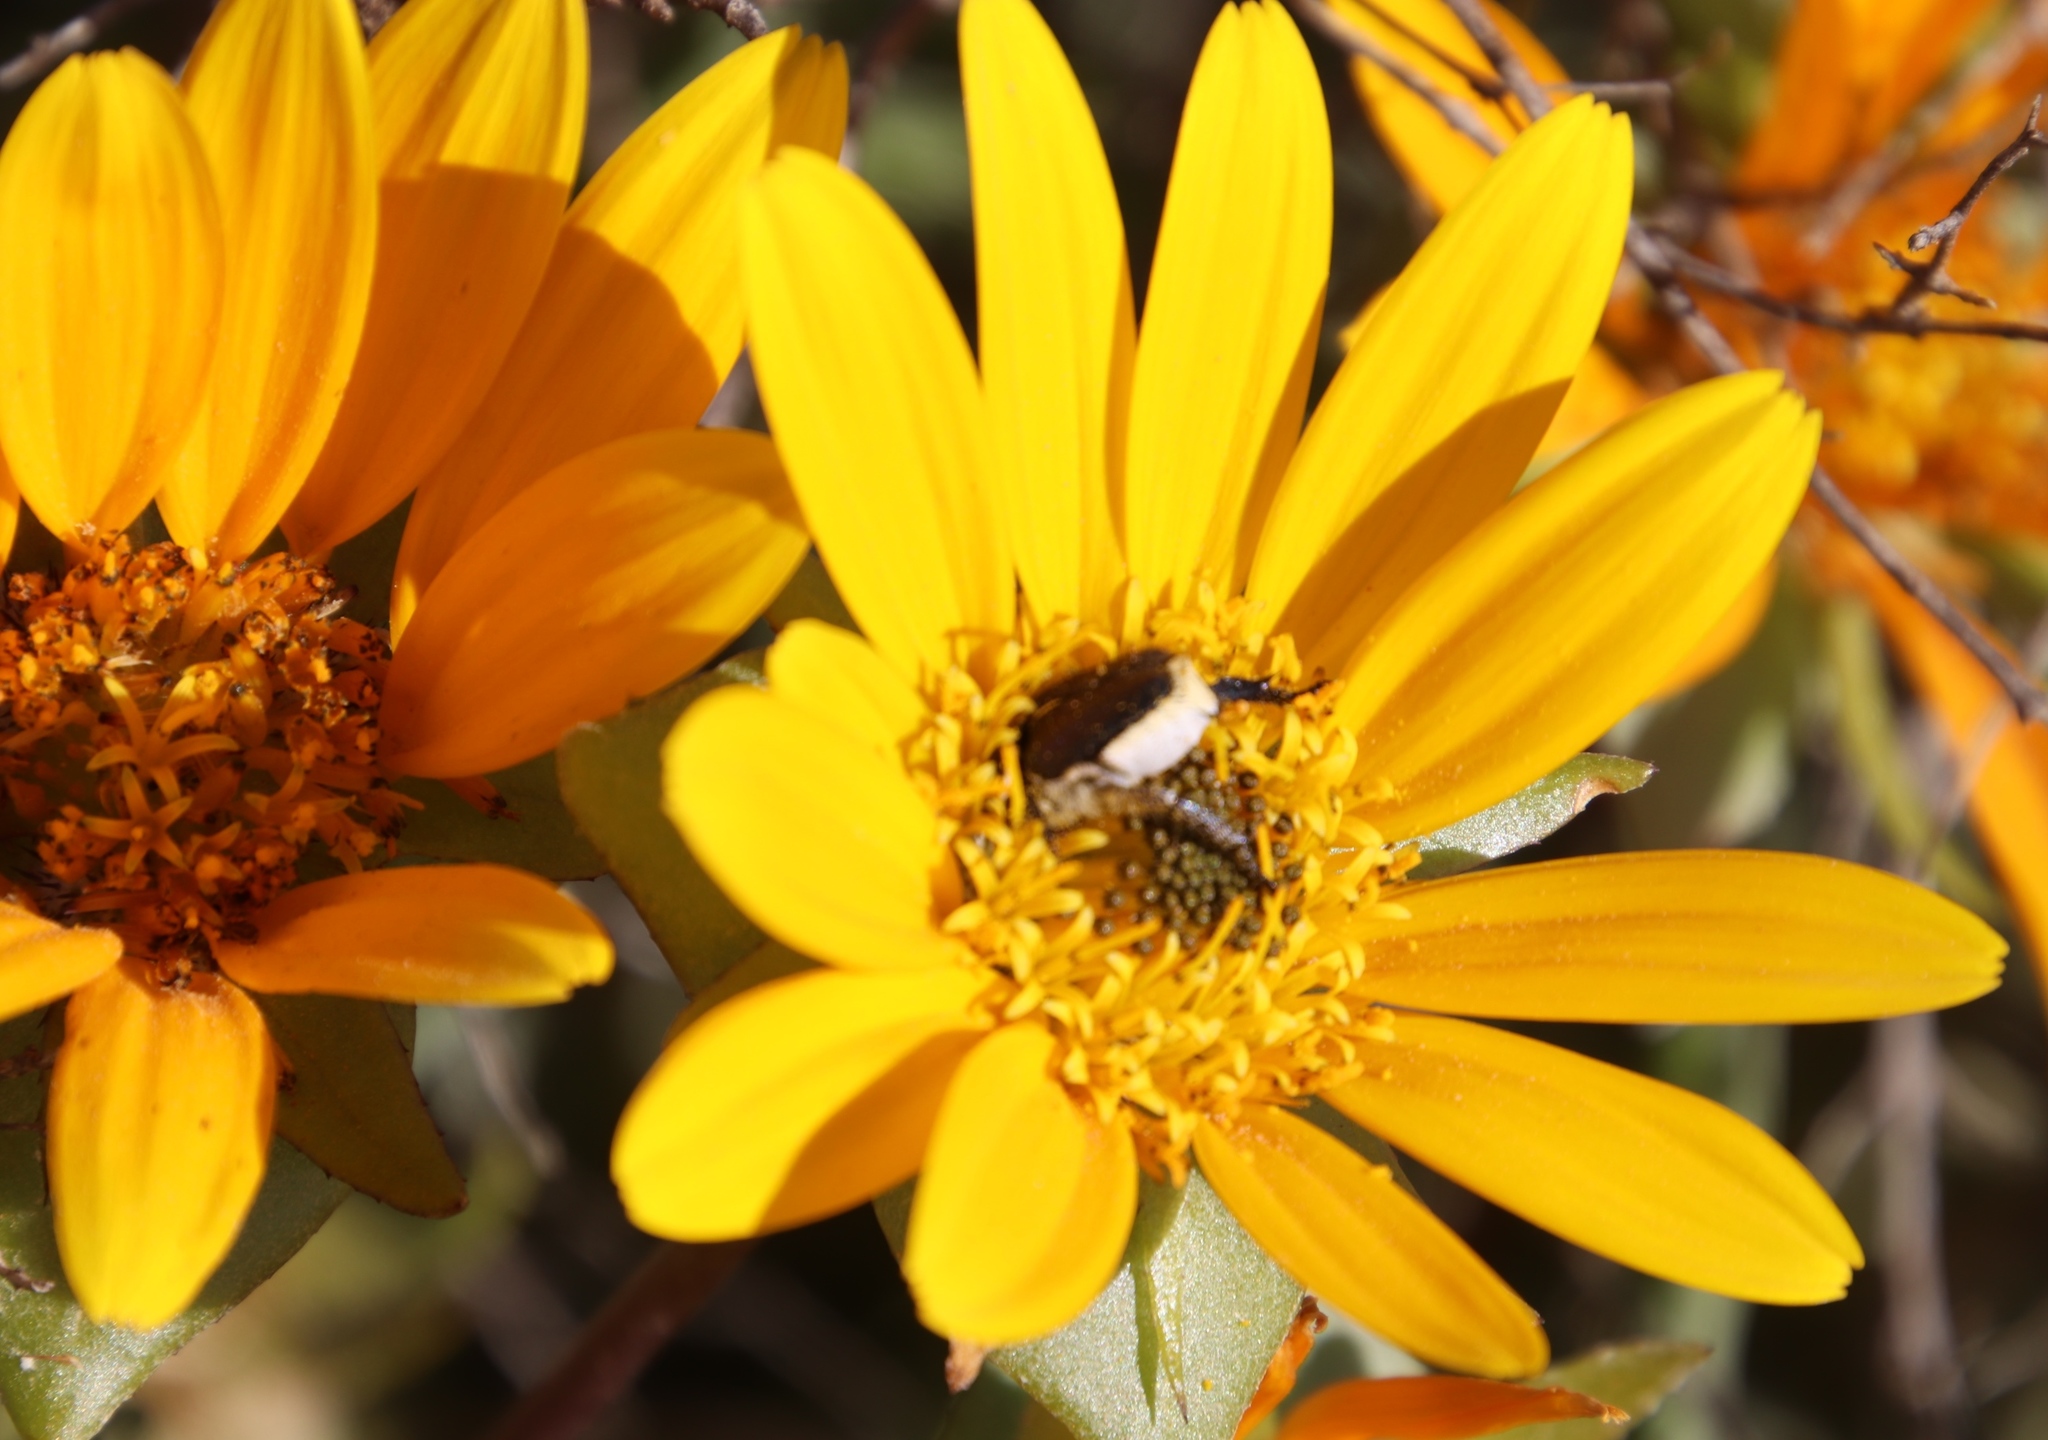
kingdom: Plantae
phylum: Tracheophyta
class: Magnoliopsida
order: Asterales
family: Asteraceae
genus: Didelta
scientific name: Didelta carnosa
